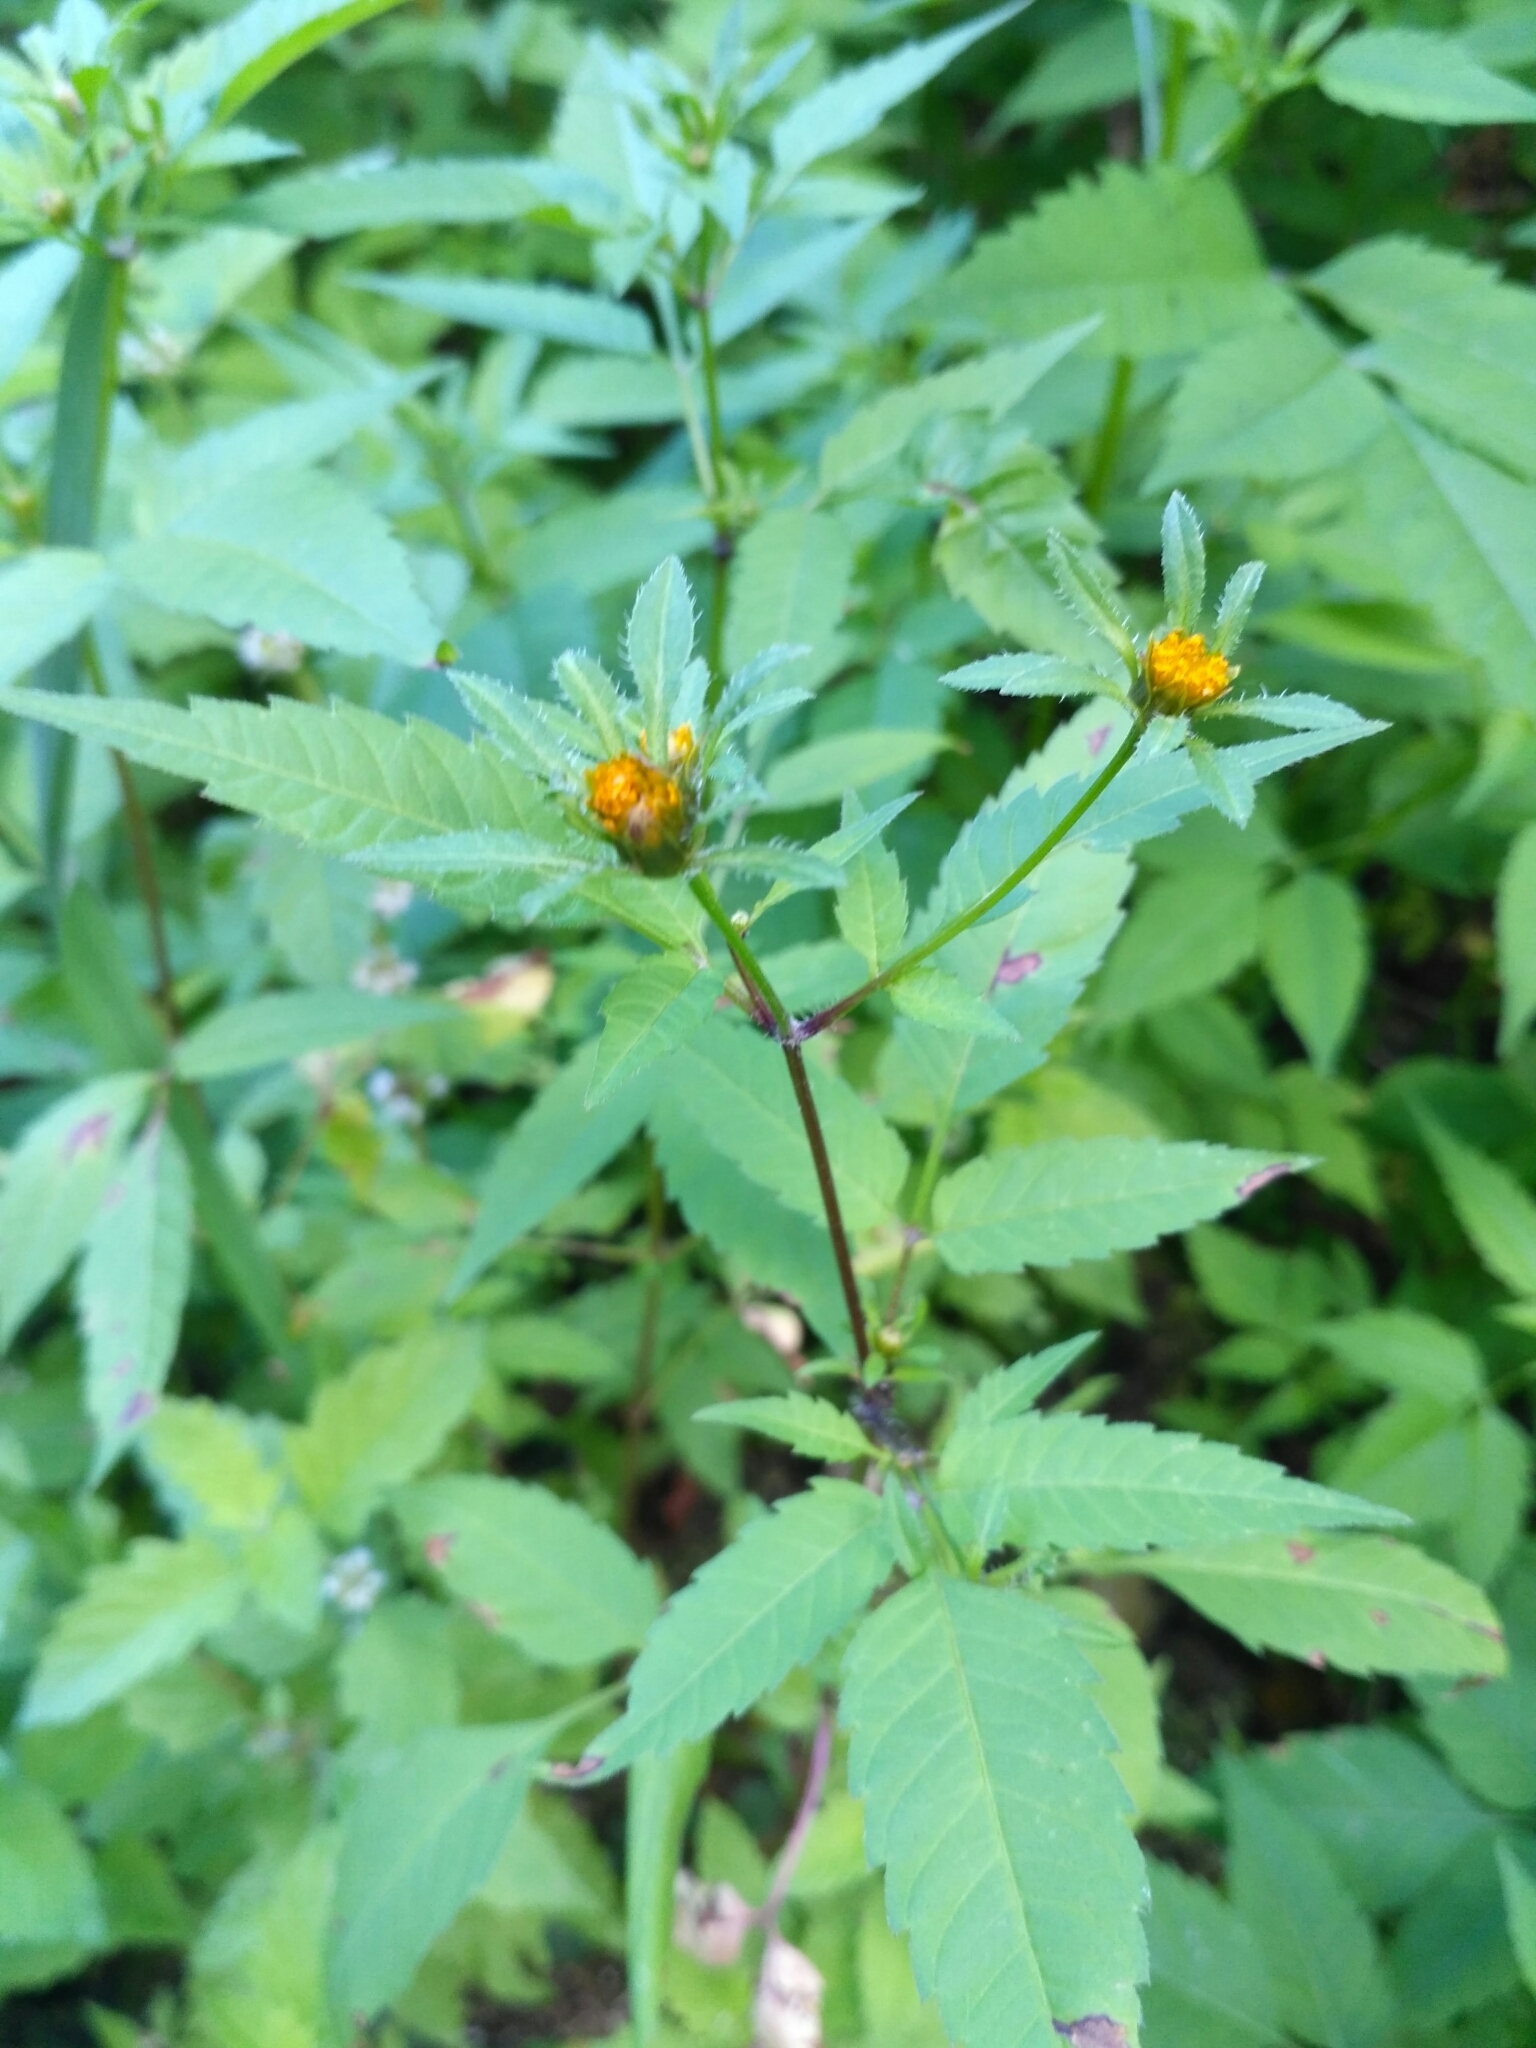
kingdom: Plantae
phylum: Tracheophyta
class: Magnoliopsida
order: Asterales
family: Asteraceae
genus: Bidens
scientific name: Bidens frondosa
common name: Beggarticks
